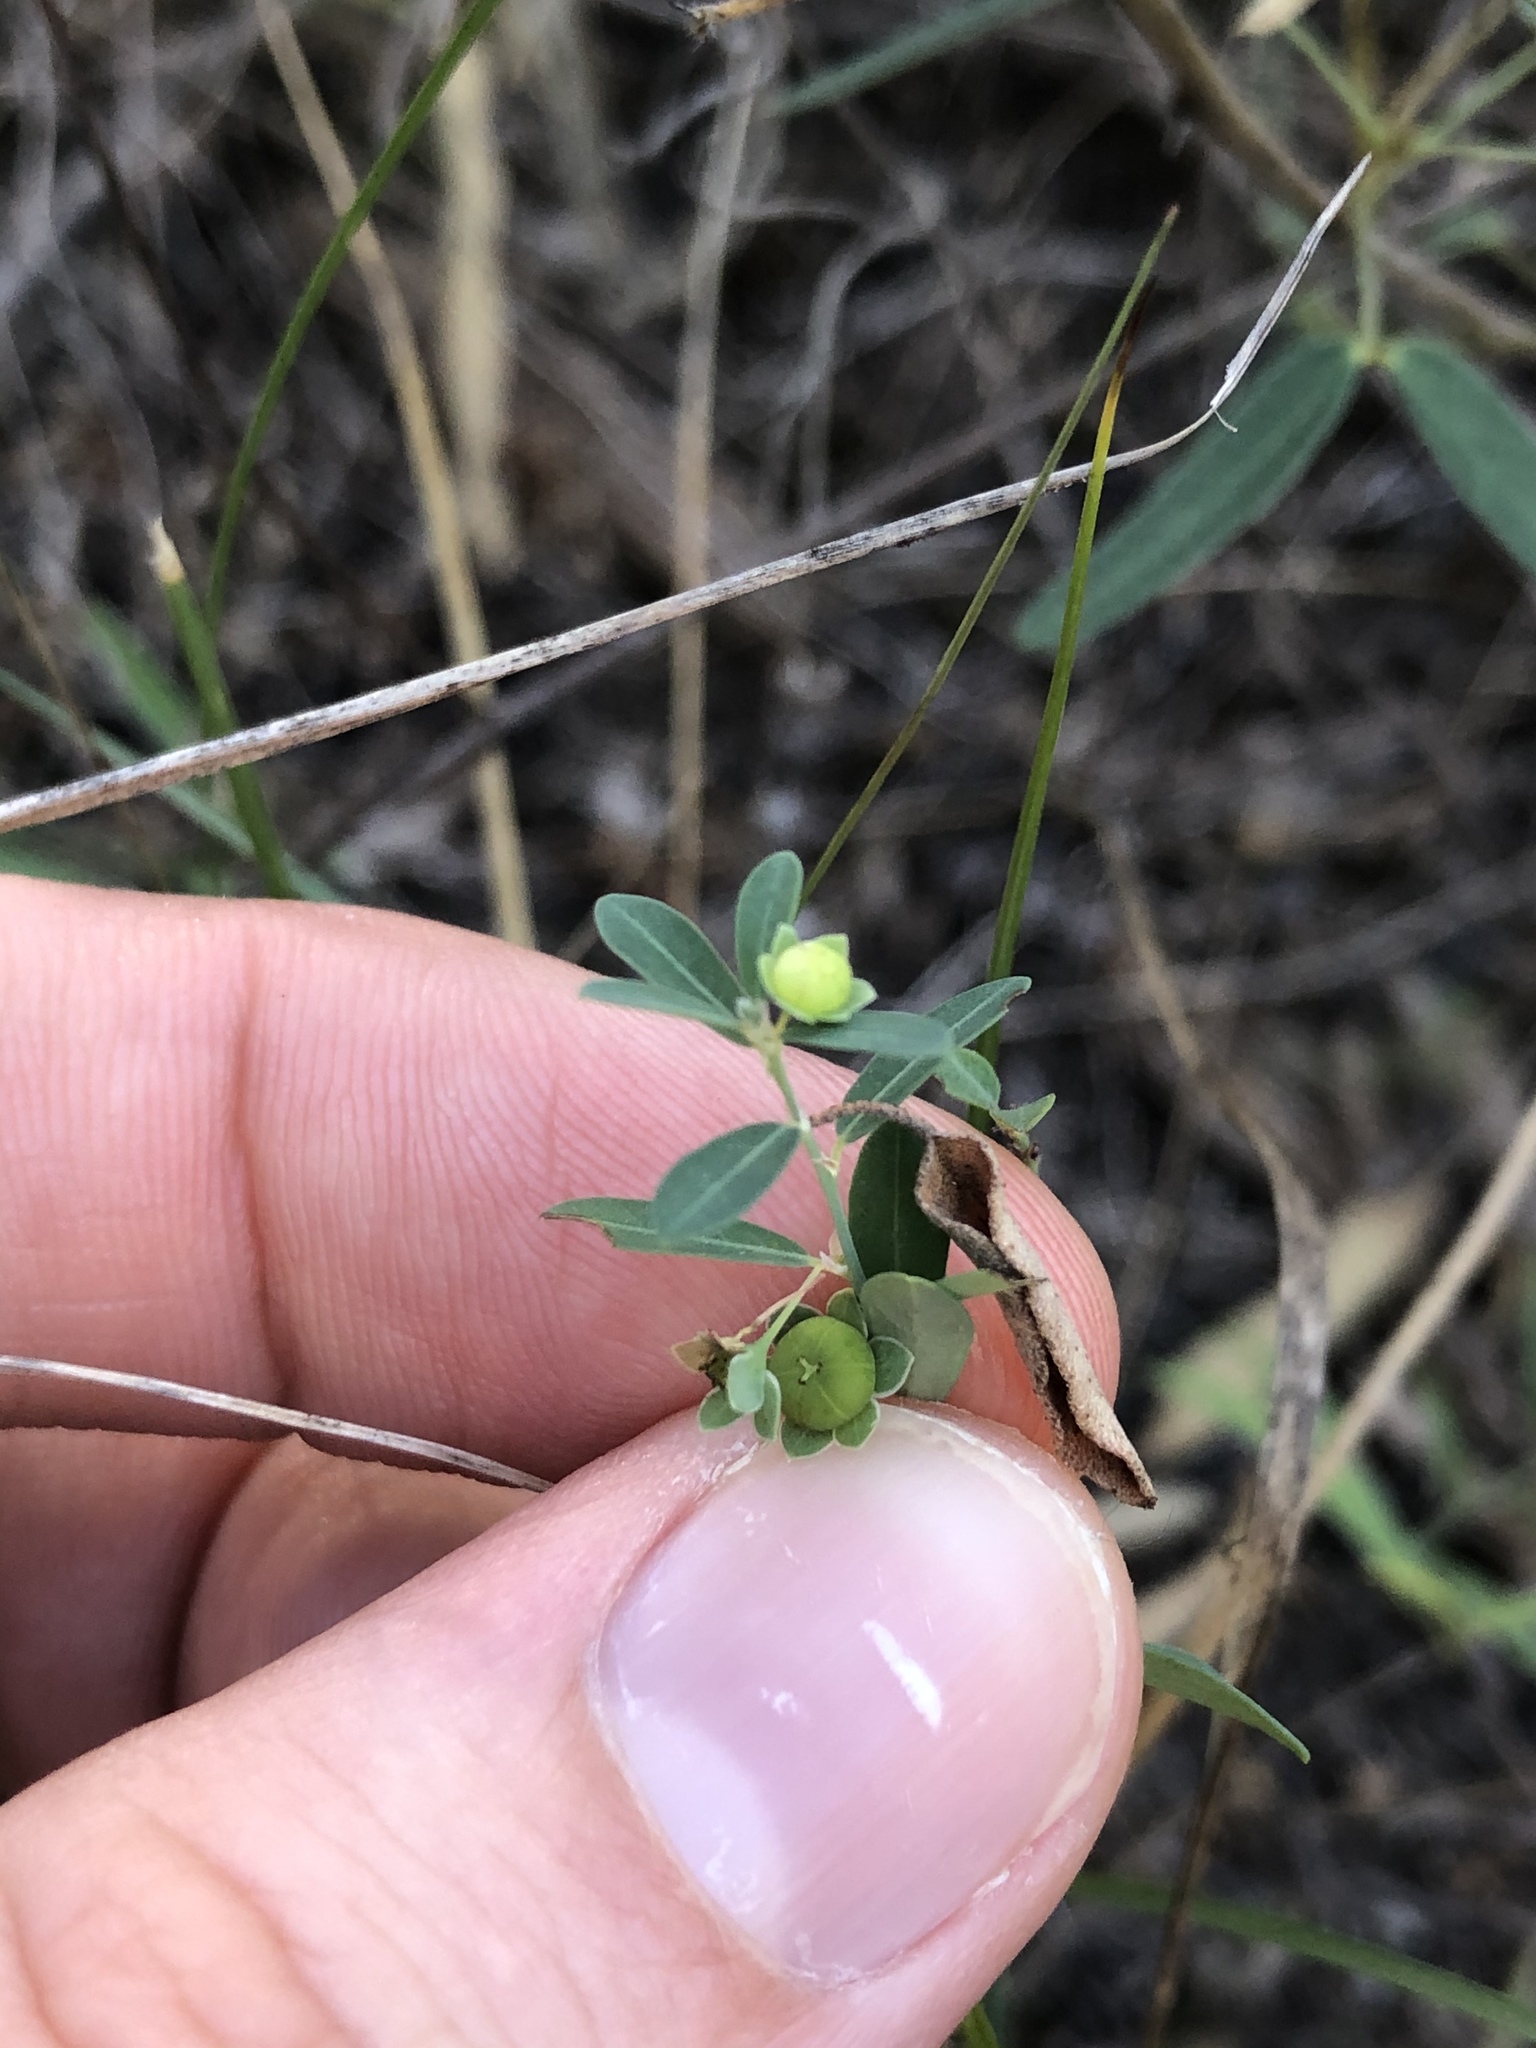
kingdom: Plantae
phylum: Tracheophyta
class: Magnoliopsida
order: Malpighiales
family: Phyllanthaceae
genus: Phyllanthus
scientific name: Phyllanthus polygonoides
